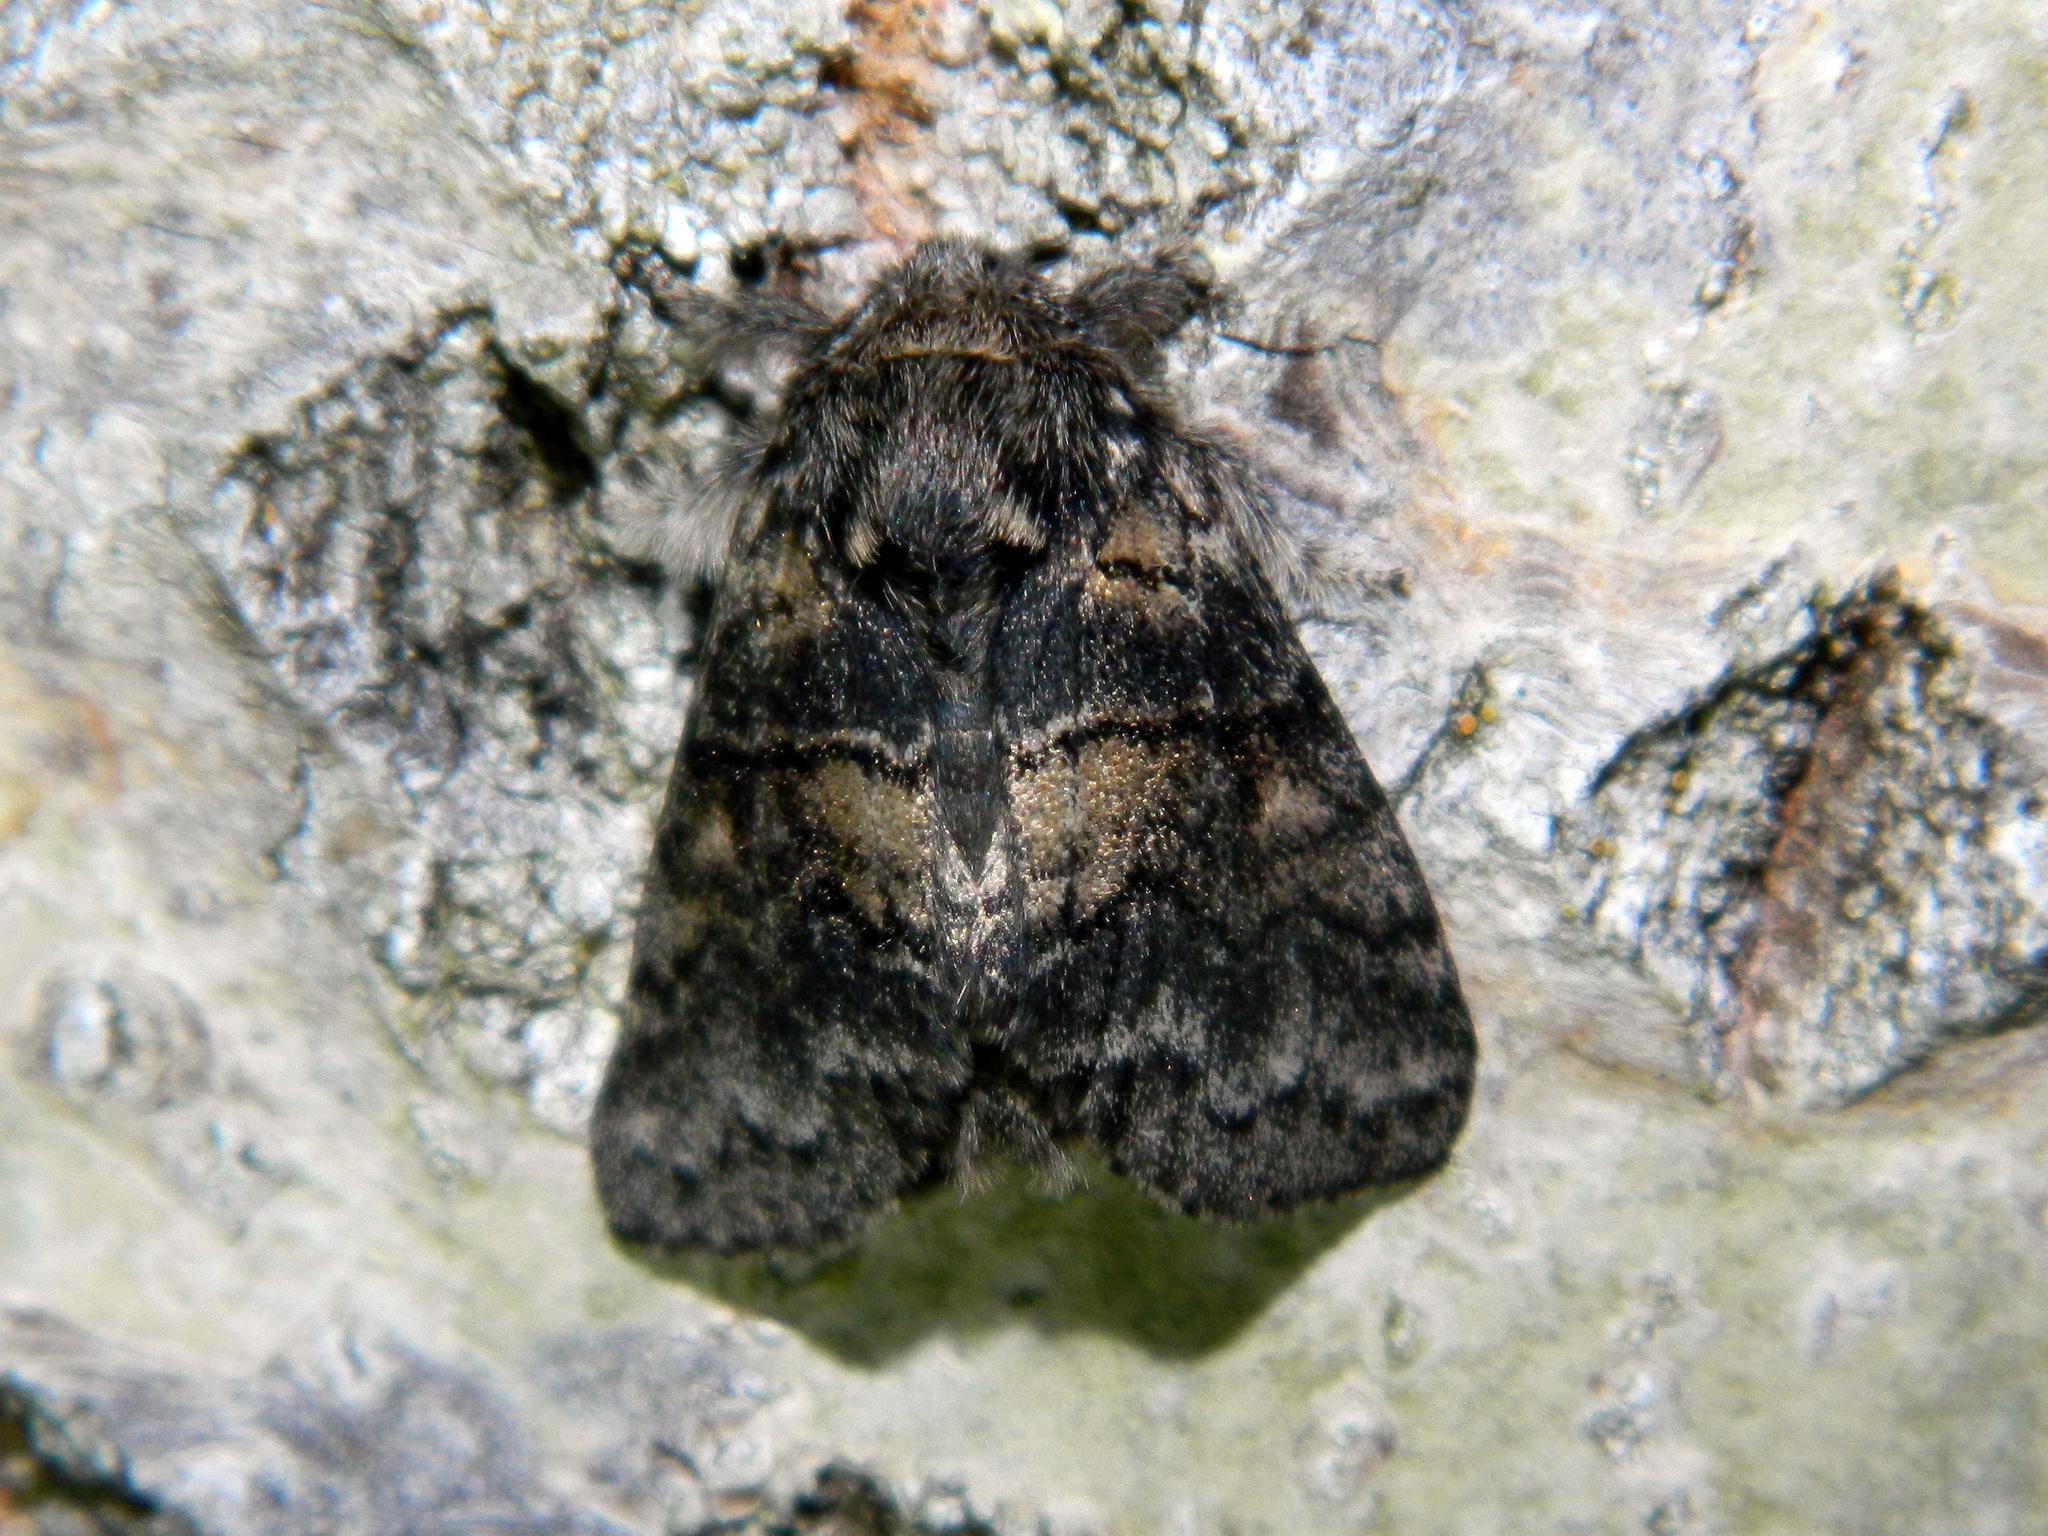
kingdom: Animalia
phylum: Arthropoda
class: Insecta
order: Lepidoptera
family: Notodontidae
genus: Gluphisia
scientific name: Gluphisia septentrionis
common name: Common gluphisia
